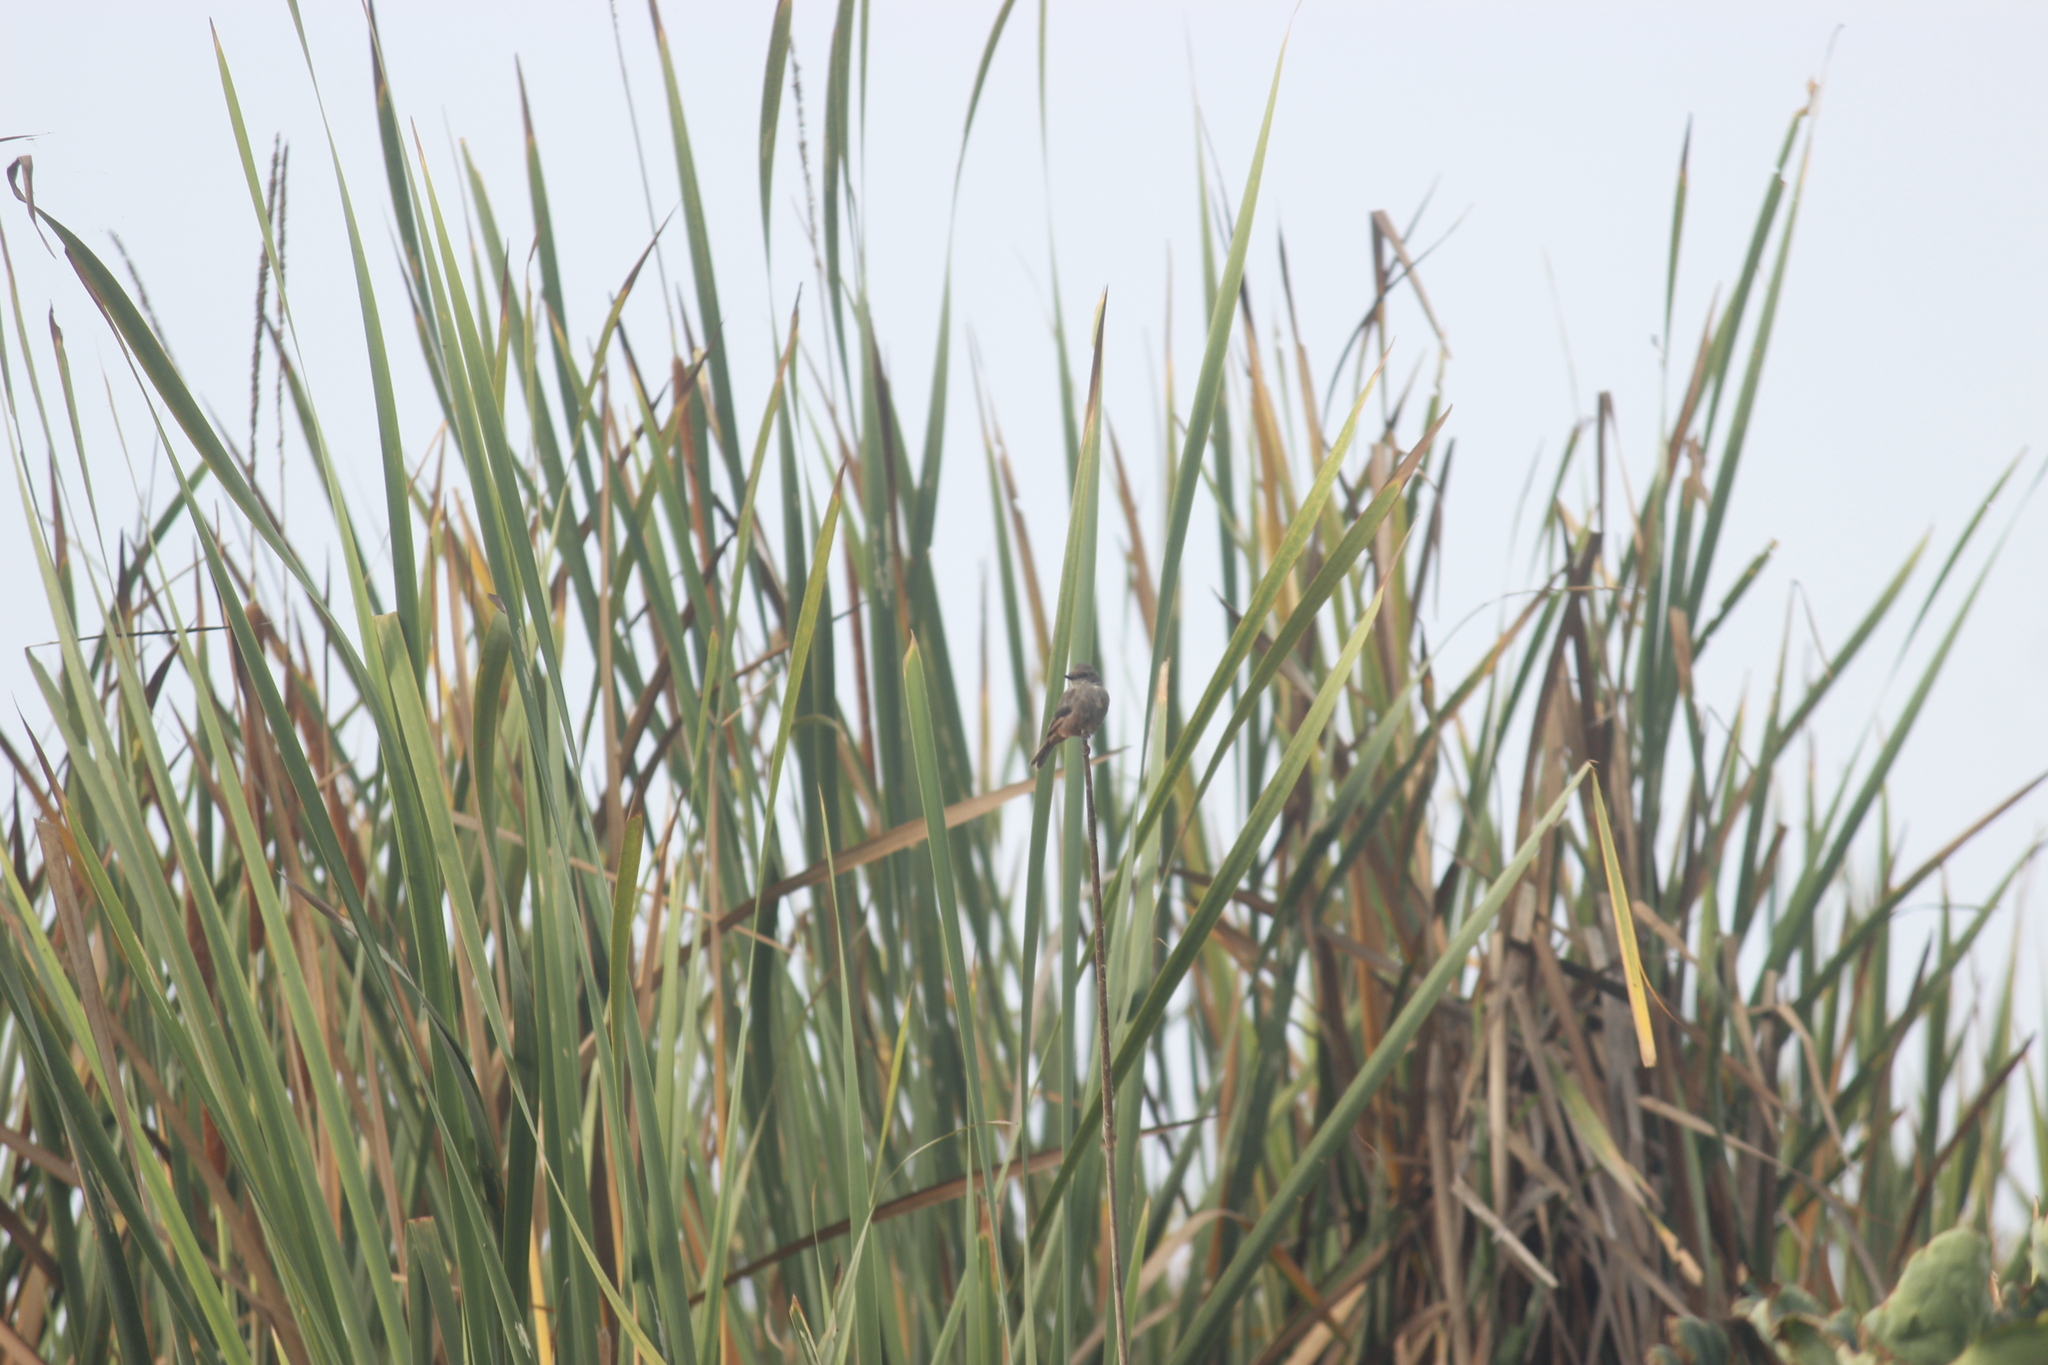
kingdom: Animalia
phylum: Chordata
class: Aves
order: Passeriformes
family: Tyrannidae
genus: Pyrocephalus
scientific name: Pyrocephalus rubinus
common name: Vermilion flycatcher
